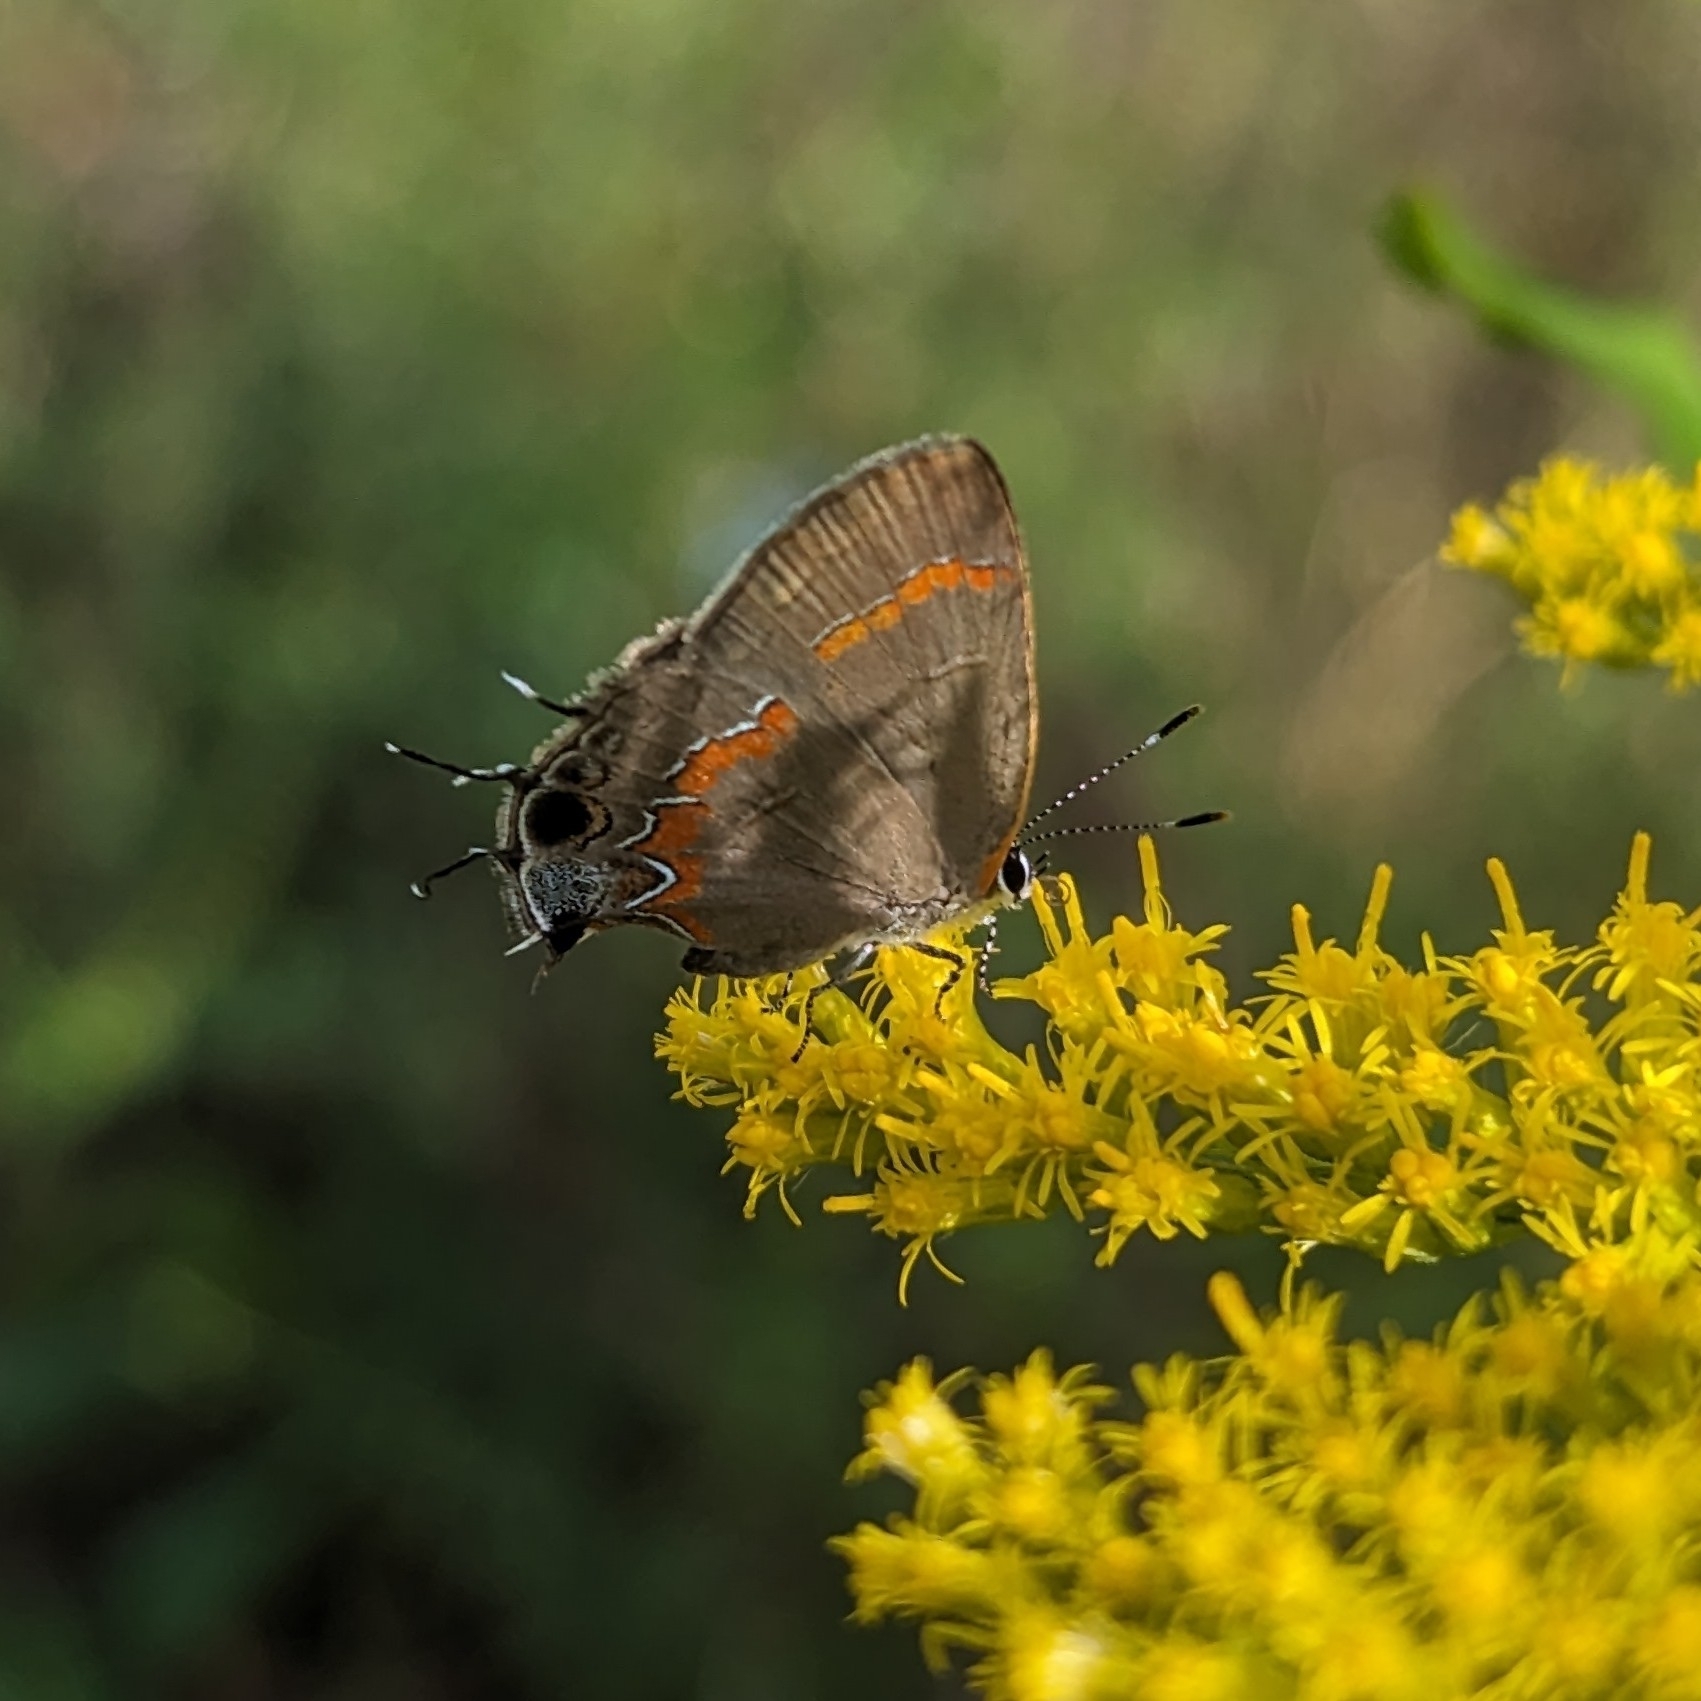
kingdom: Animalia
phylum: Arthropoda
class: Insecta
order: Lepidoptera
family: Lycaenidae
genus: Calycopis
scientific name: Calycopis cecrops
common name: Red-banded hairstreak
